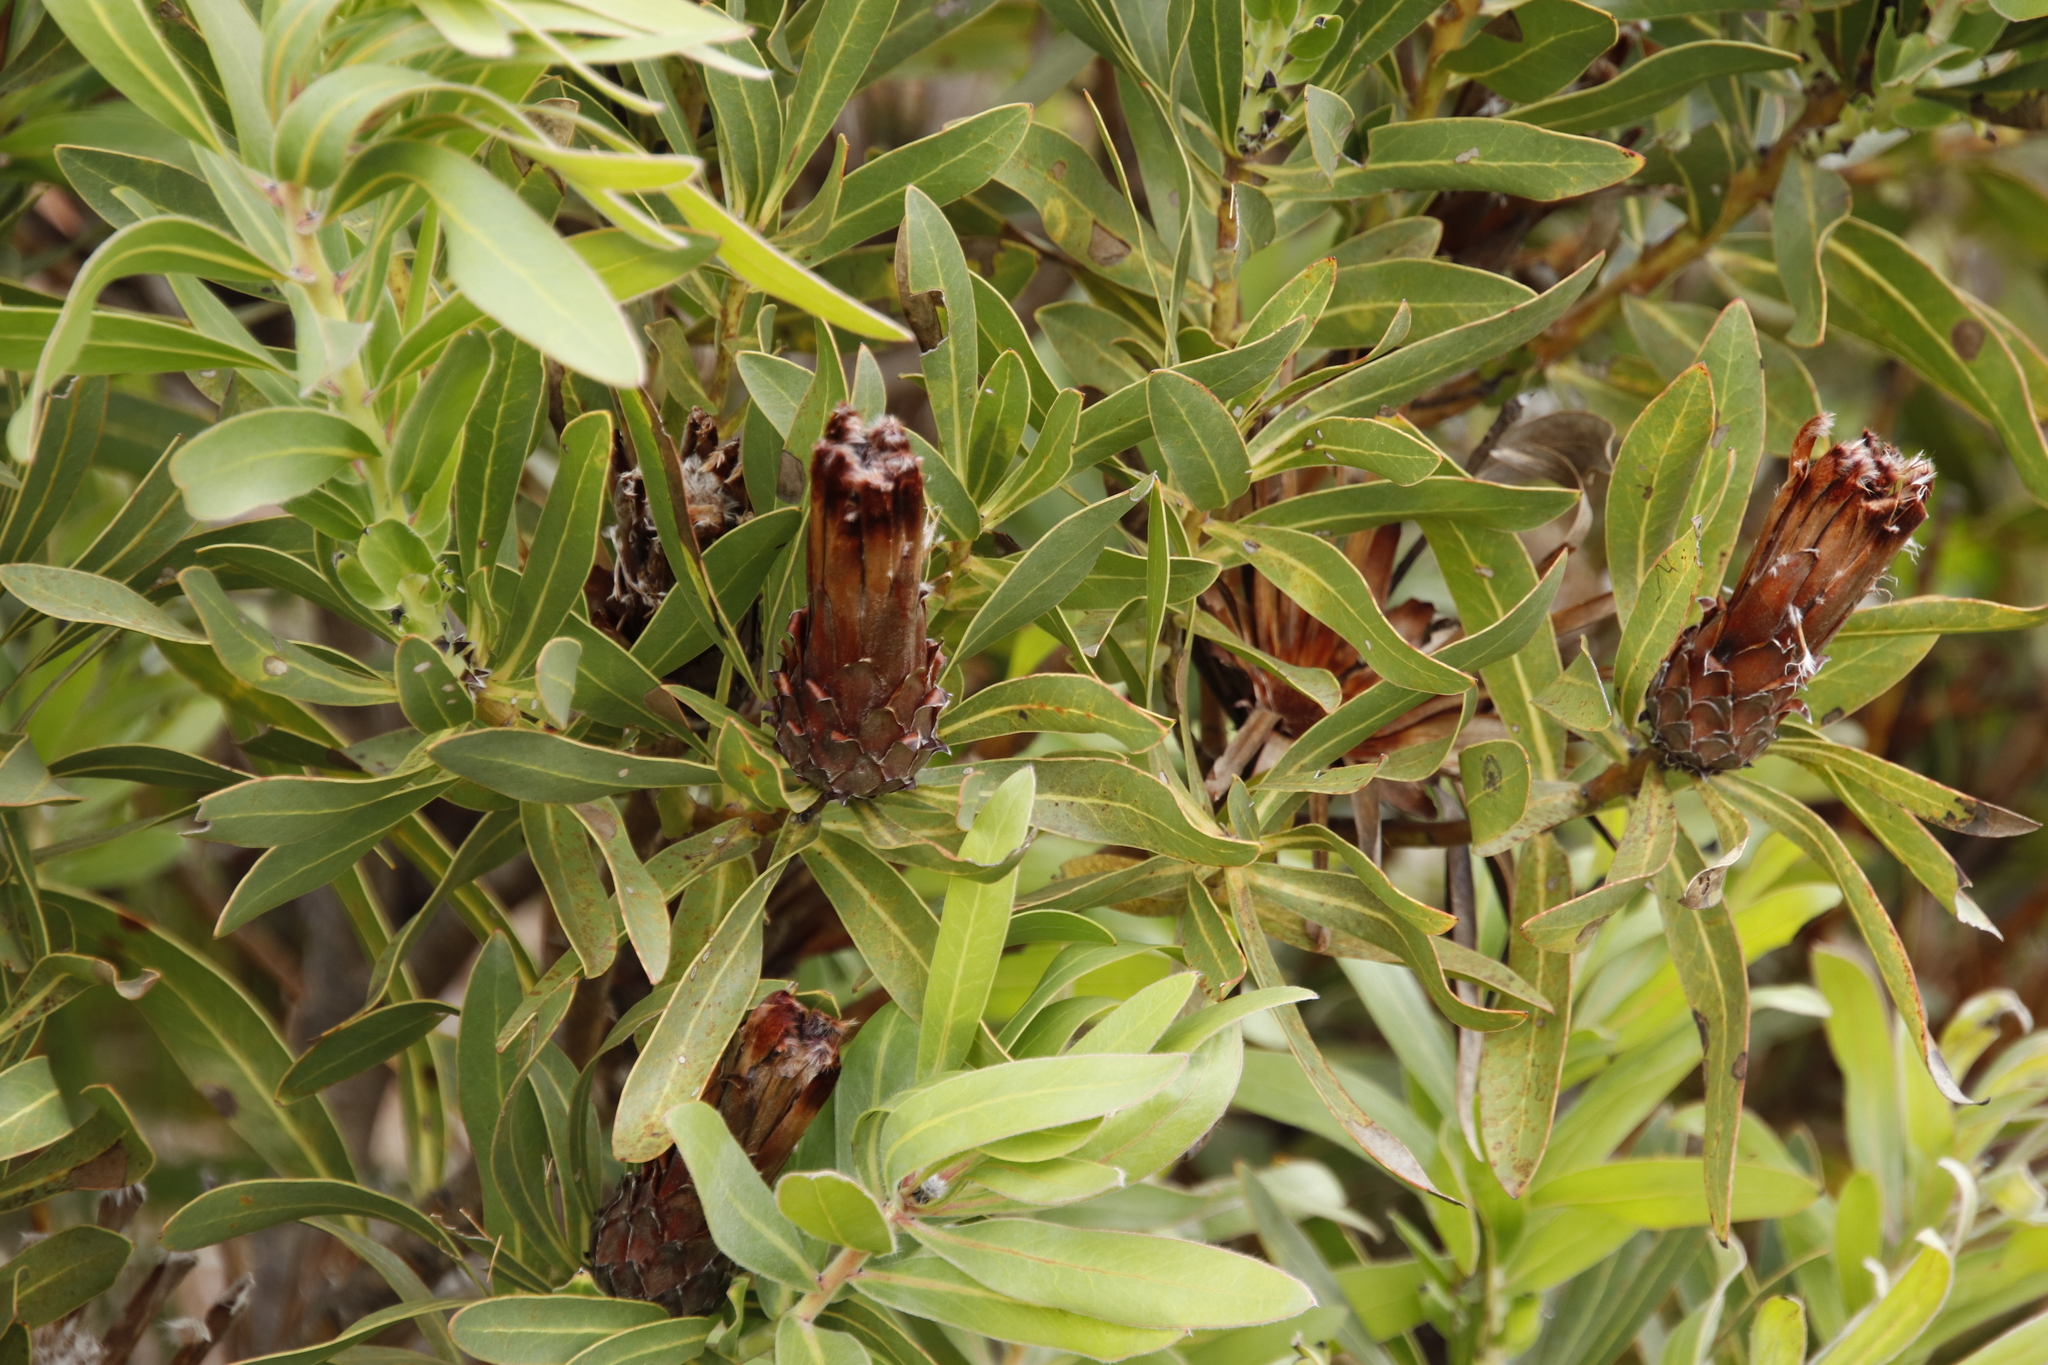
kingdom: Plantae
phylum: Tracheophyta
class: Magnoliopsida
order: Proteales
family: Proteaceae
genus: Protea
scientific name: Protea
